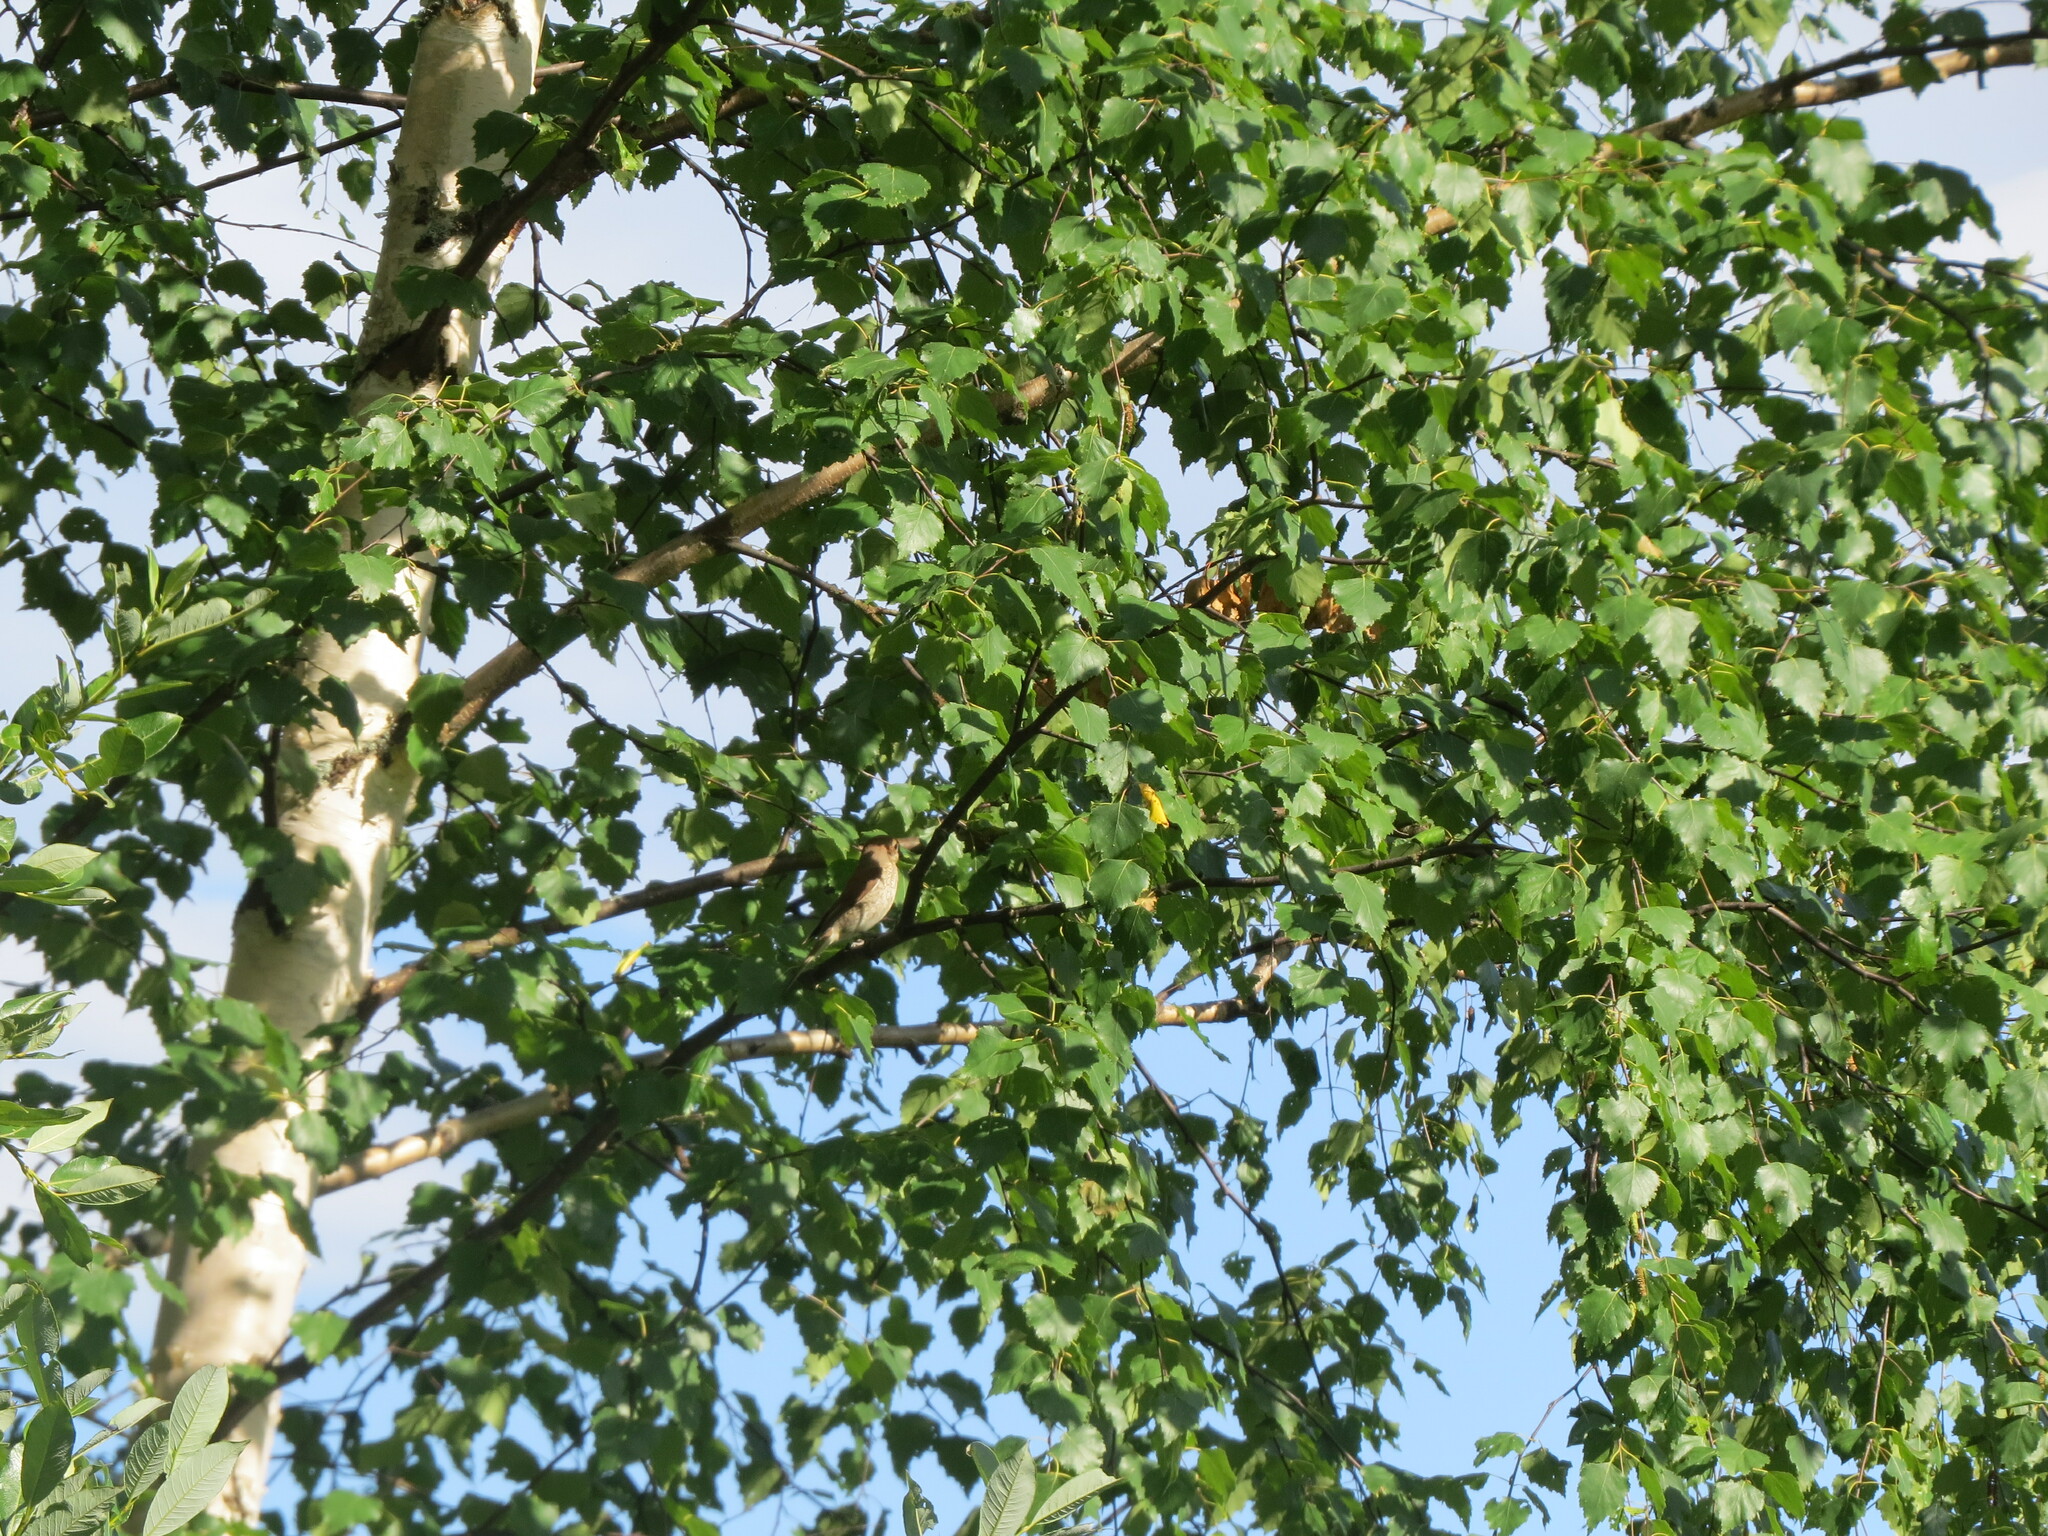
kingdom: Animalia
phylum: Chordata
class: Aves
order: Passeriformes
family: Laniidae
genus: Lanius
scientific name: Lanius collurio
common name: Red-backed shrike
